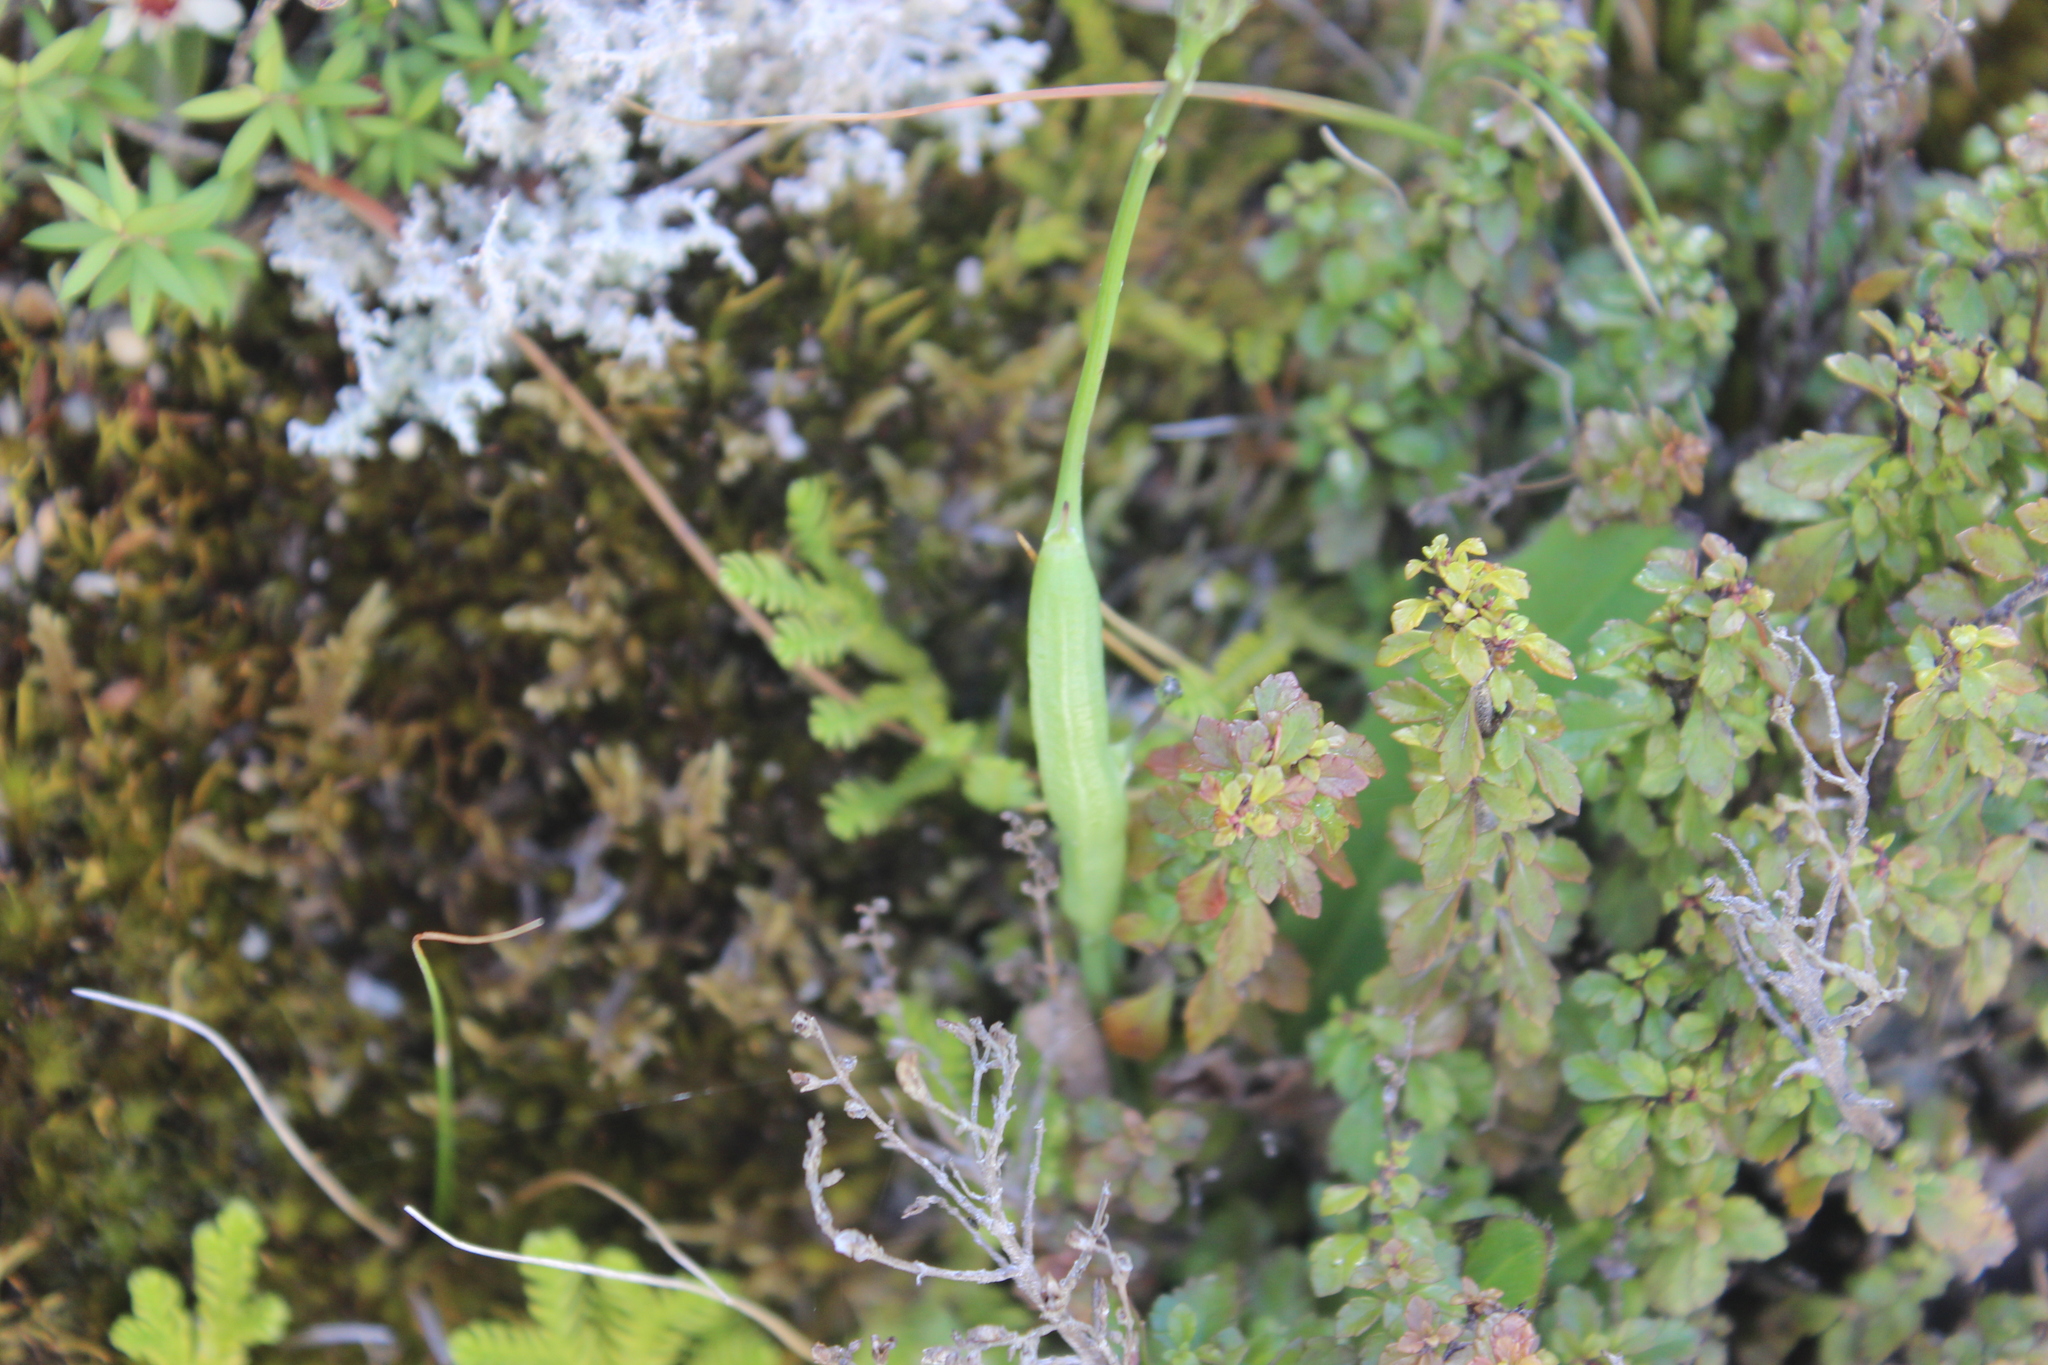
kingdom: Animalia
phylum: Arthropoda
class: Insecta
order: Hymenoptera
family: Cynipidae
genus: Phanacis
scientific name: Phanacis hypochoeridis
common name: Gall wasp
